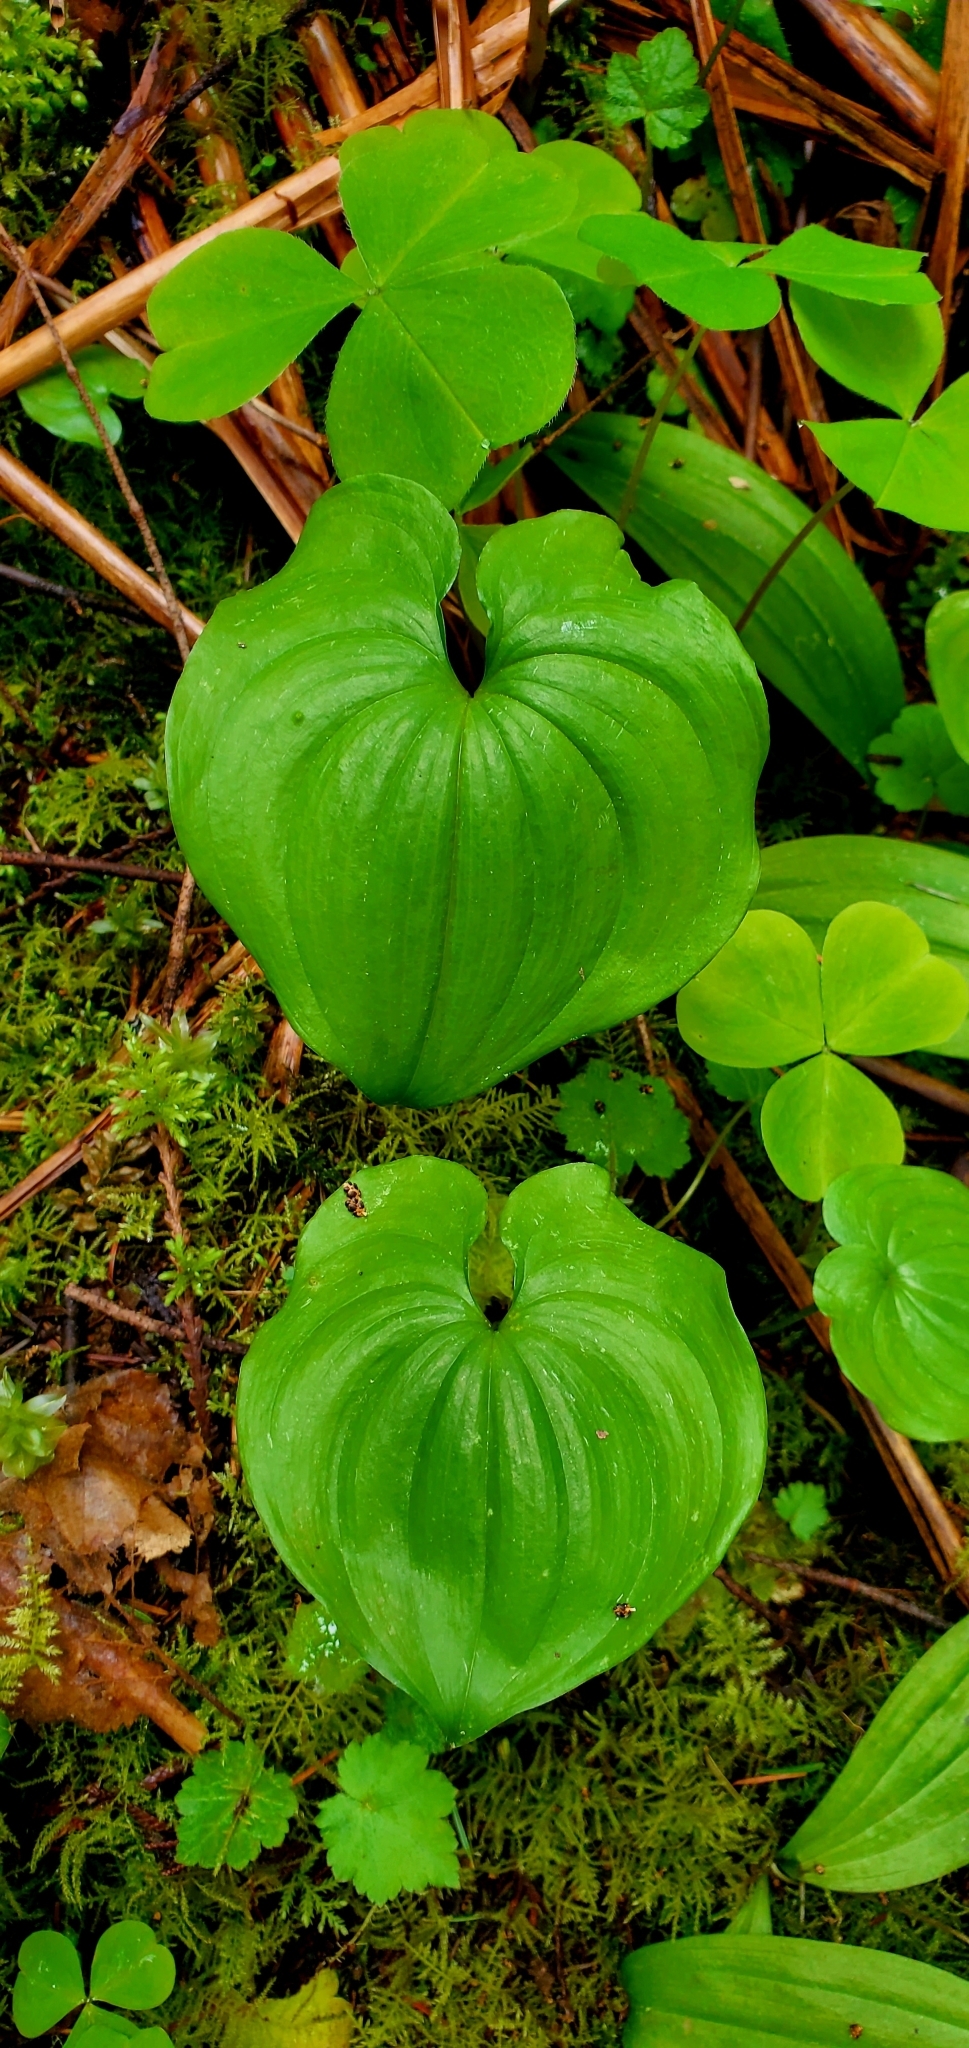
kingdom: Plantae
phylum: Tracheophyta
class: Liliopsida
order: Asparagales
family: Asparagaceae
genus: Maianthemum
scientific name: Maianthemum dilatatum
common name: False lily-of-the-valley
